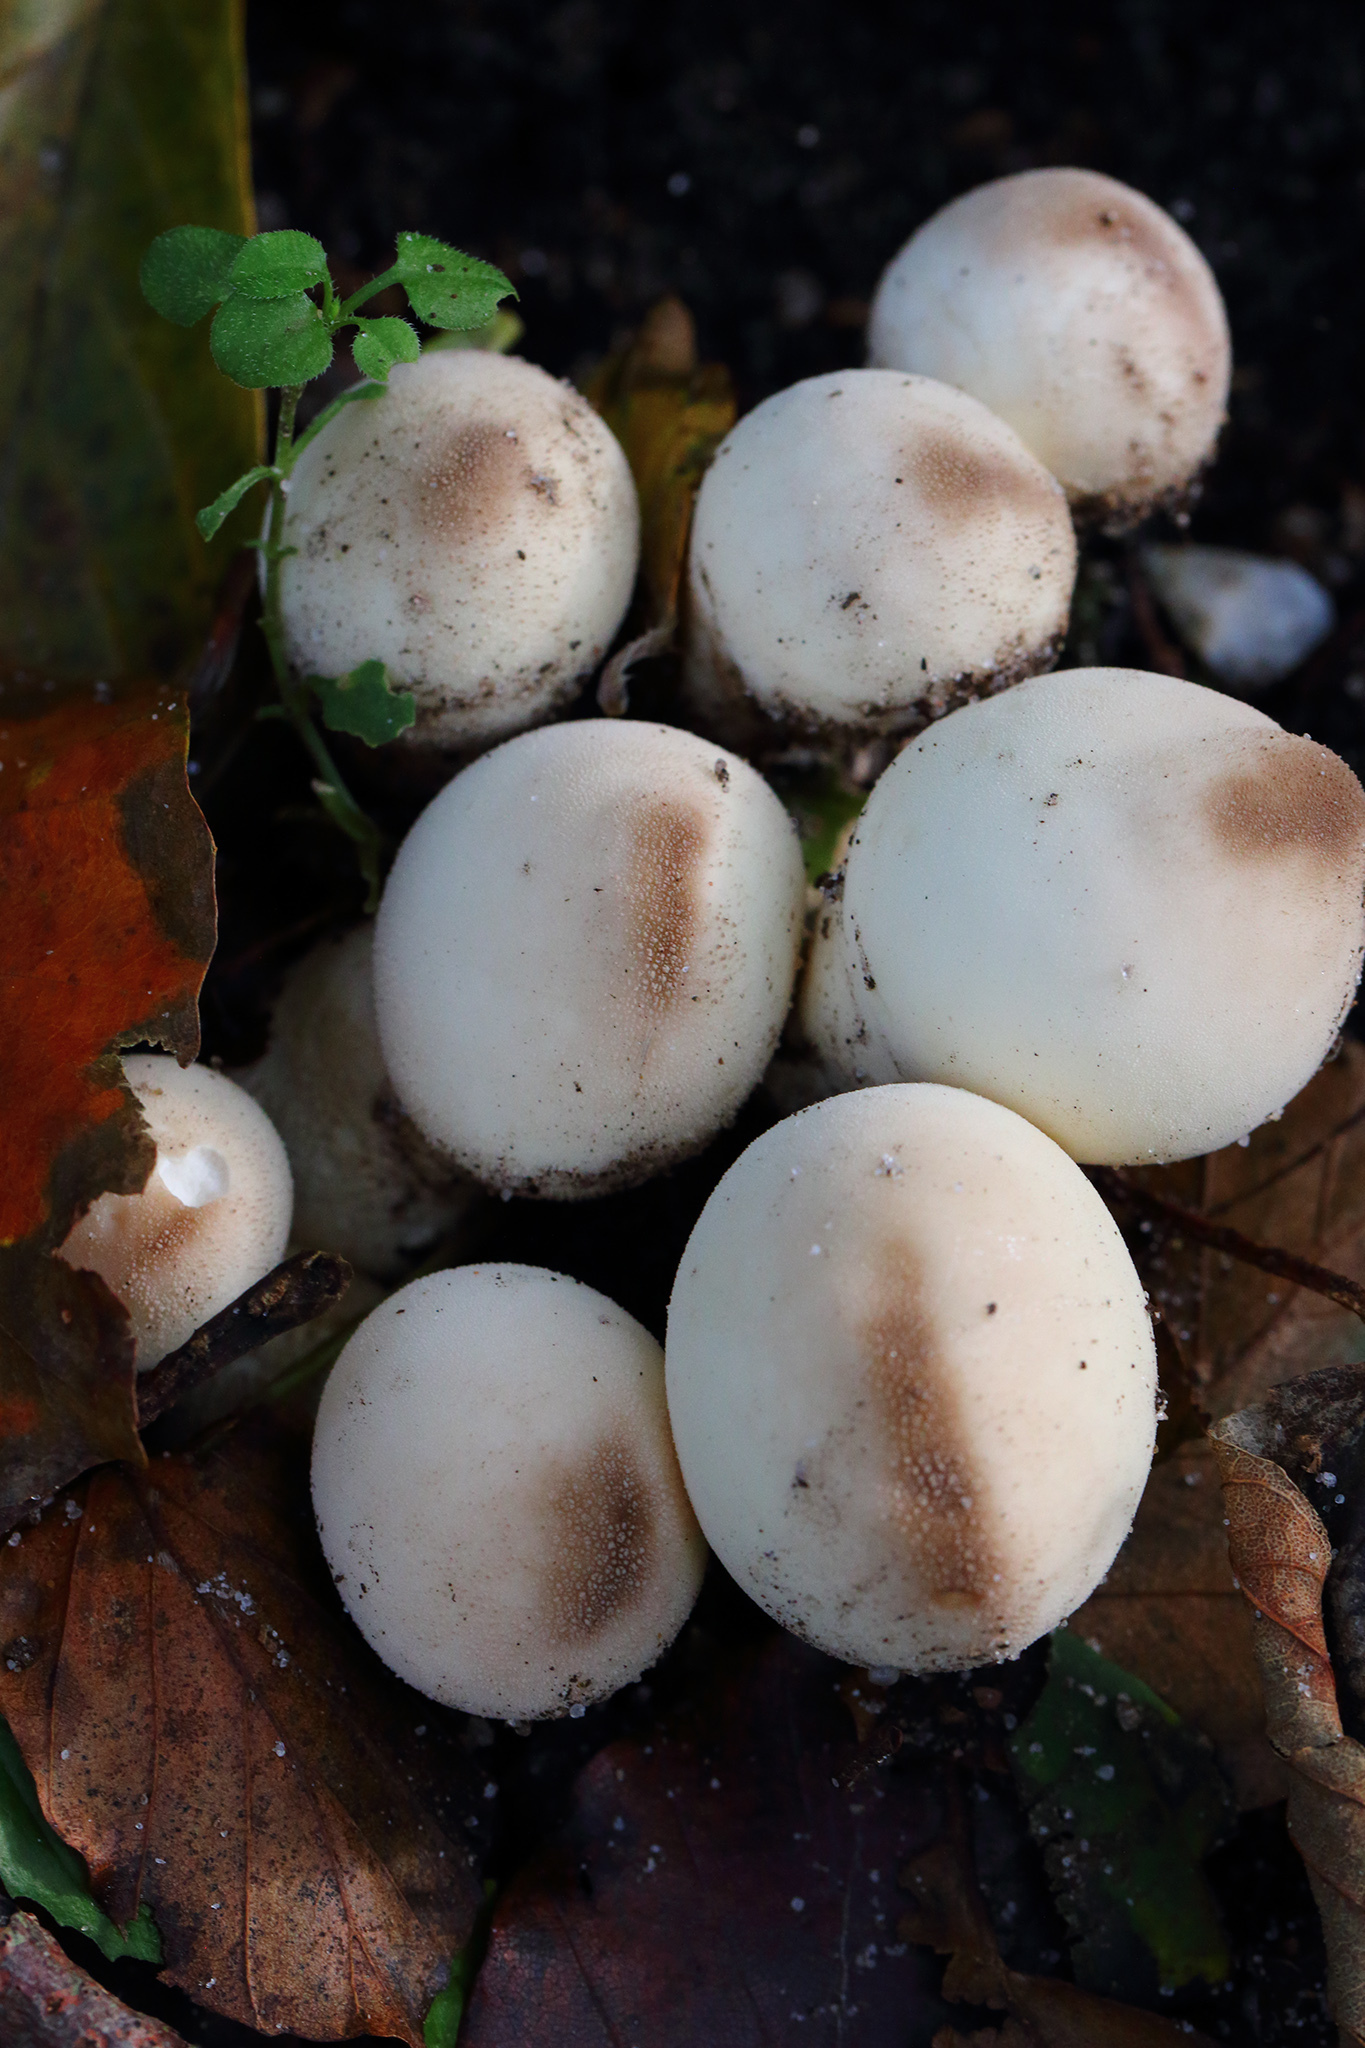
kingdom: Fungi
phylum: Basidiomycota
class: Agaricomycetes
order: Agaricales
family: Lycoperdaceae
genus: Apioperdon
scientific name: Apioperdon pyriforme
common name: Pear-shaped puffball
